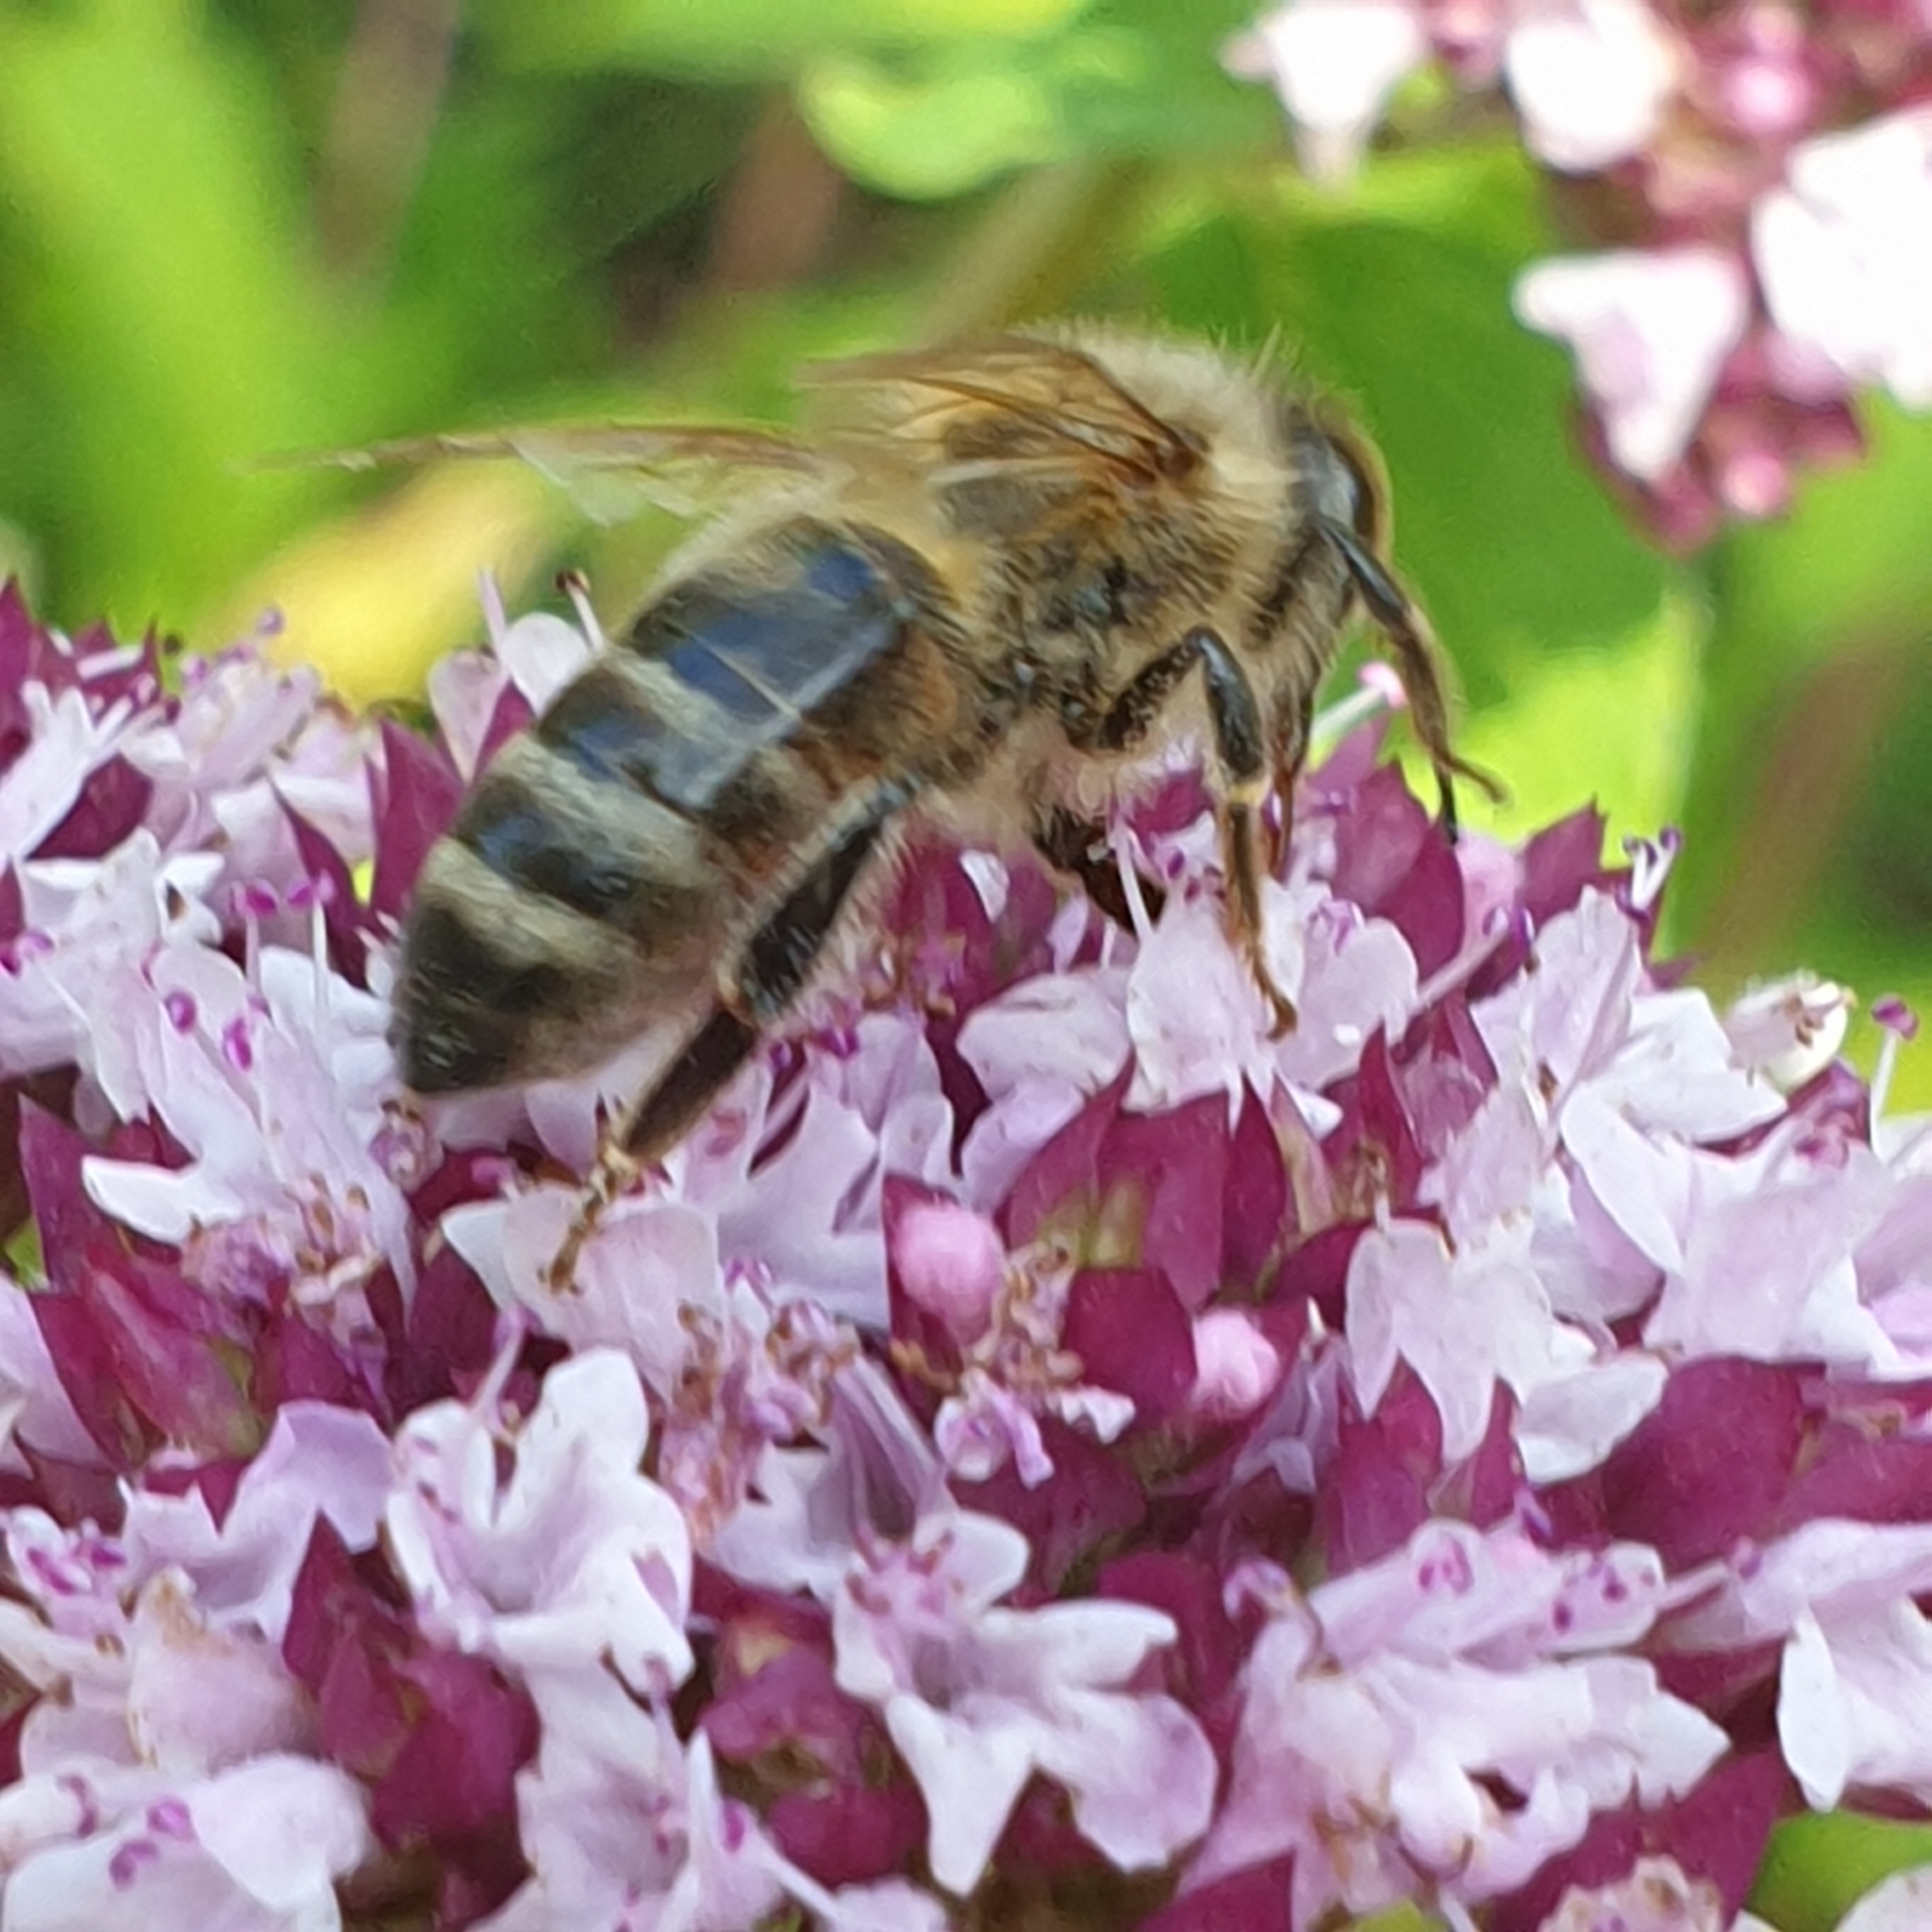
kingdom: Animalia
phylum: Arthropoda
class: Insecta
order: Hymenoptera
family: Apidae
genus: Apis
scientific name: Apis mellifera
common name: Honey bee
